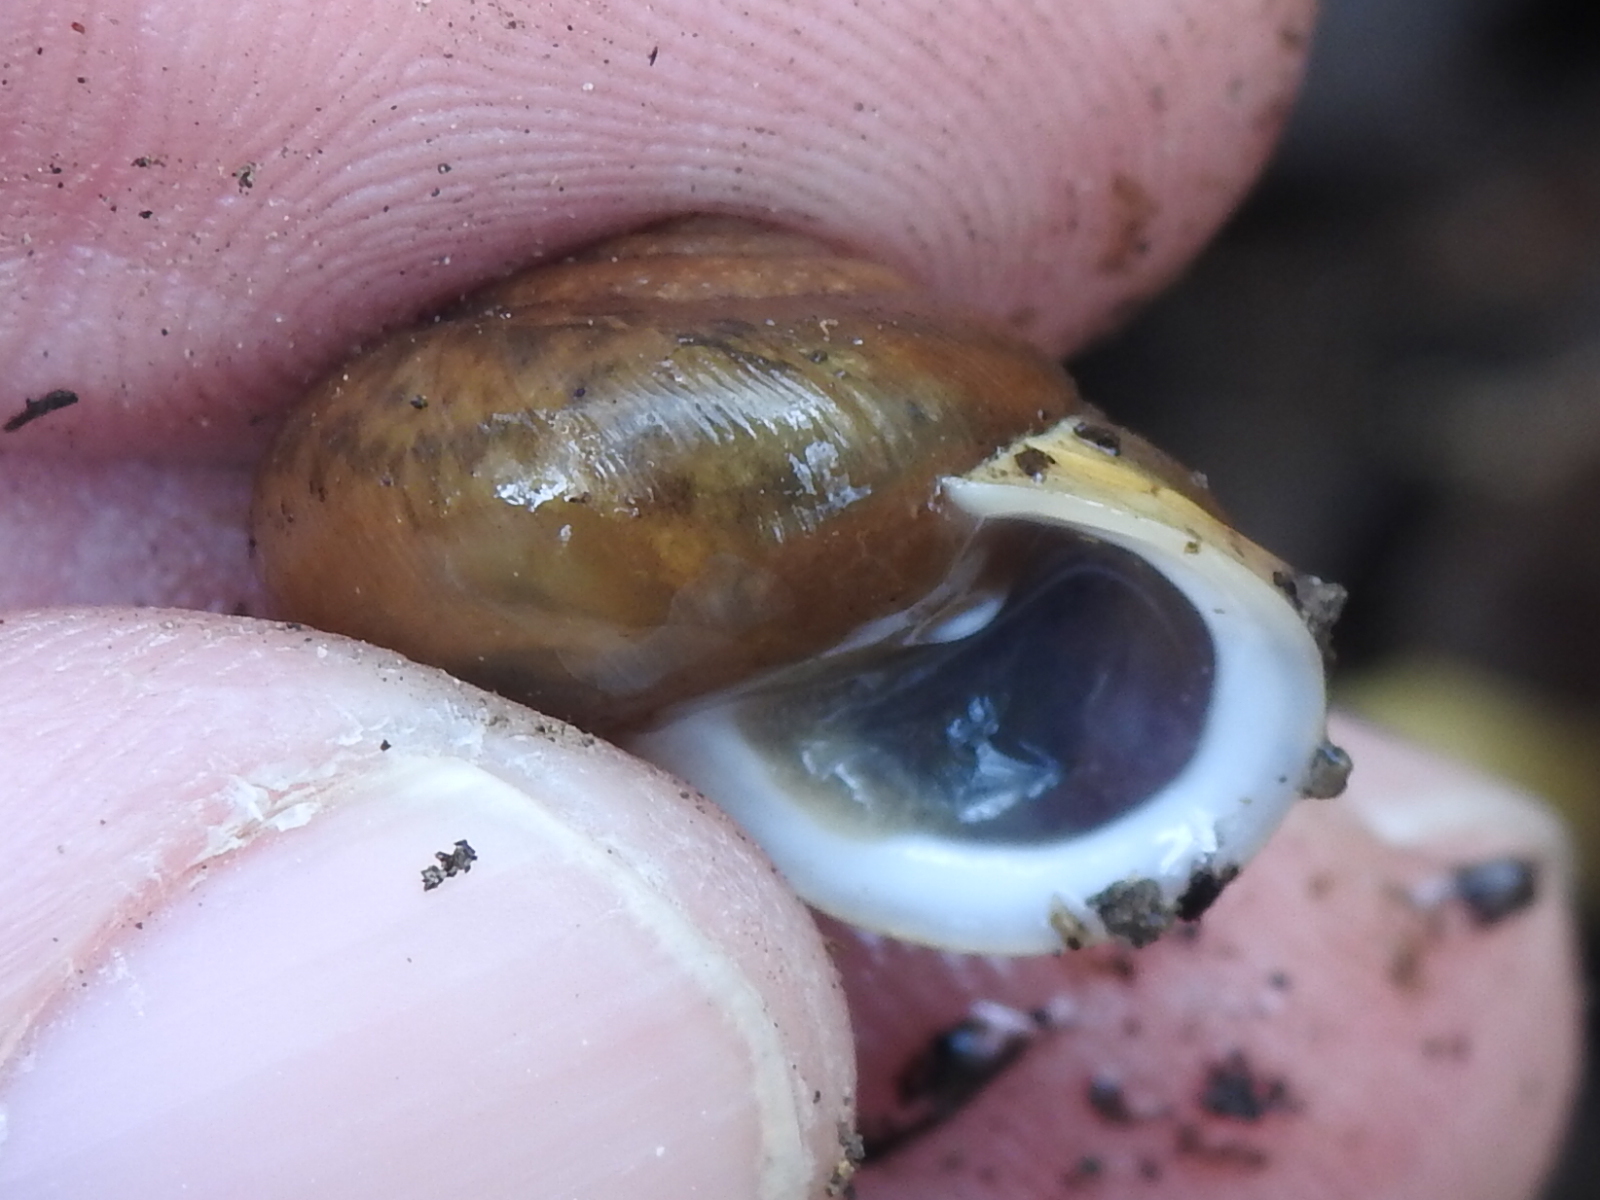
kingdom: Animalia
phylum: Mollusca
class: Gastropoda
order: Stylommatophora
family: Polygyridae
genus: Mesodon
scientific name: Mesodon thyroidus
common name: White-lip globe
